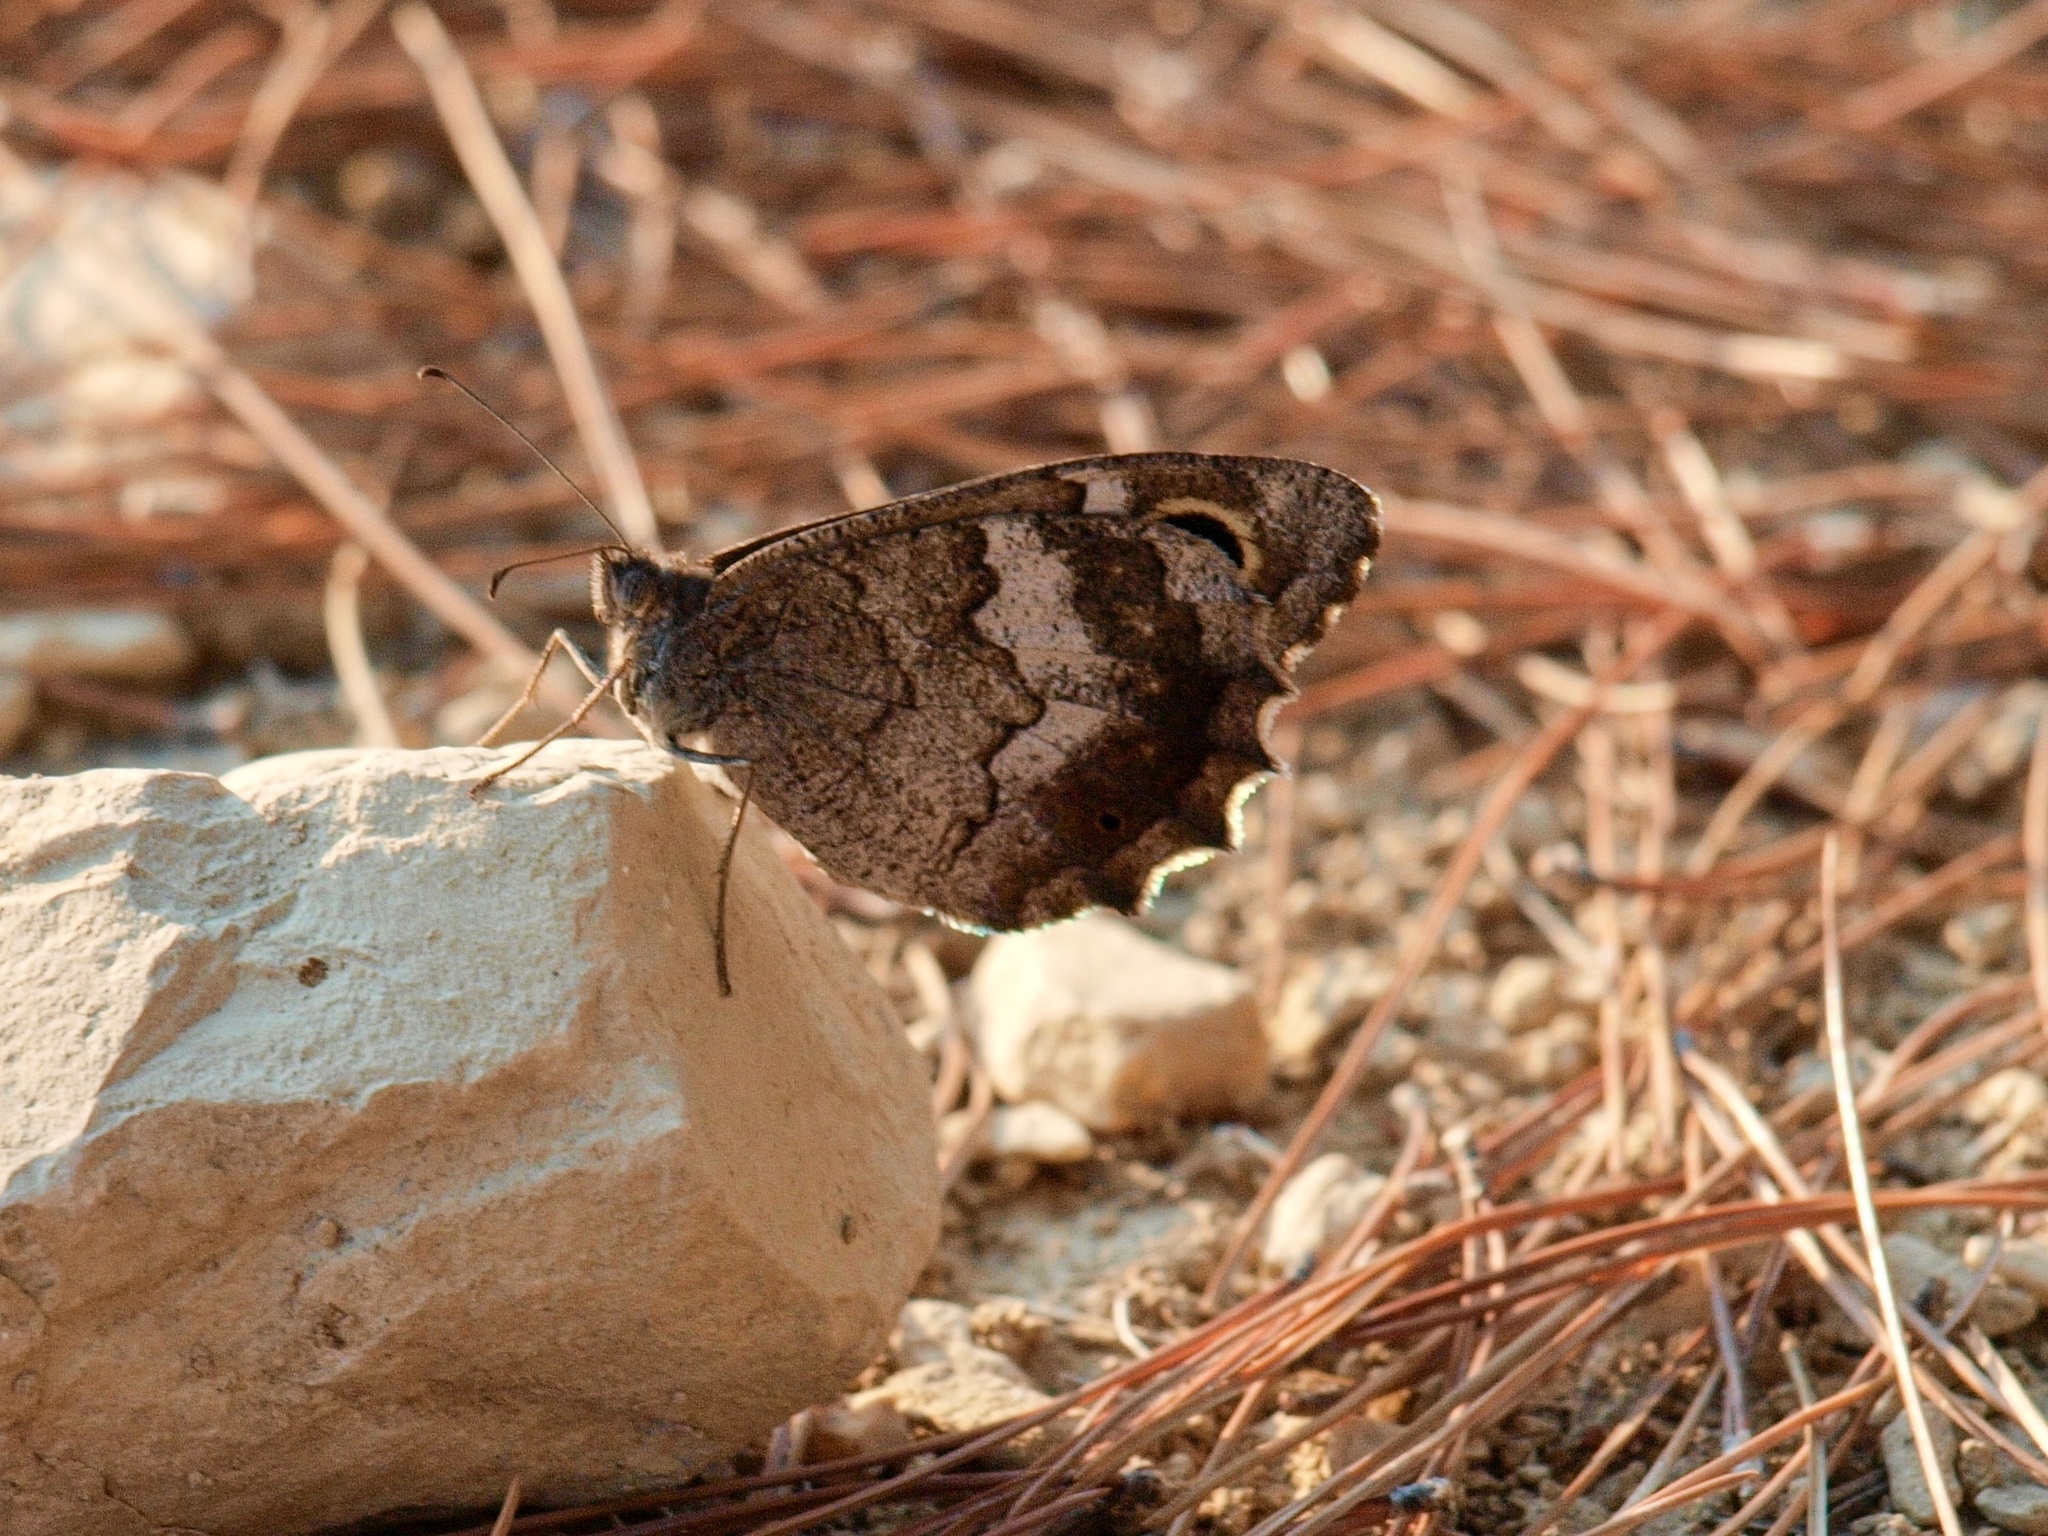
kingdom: Animalia
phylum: Arthropoda
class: Insecta
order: Lepidoptera
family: Nymphalidae
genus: Hipparchia
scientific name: Hipparchia statilinus
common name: Tree grayling
